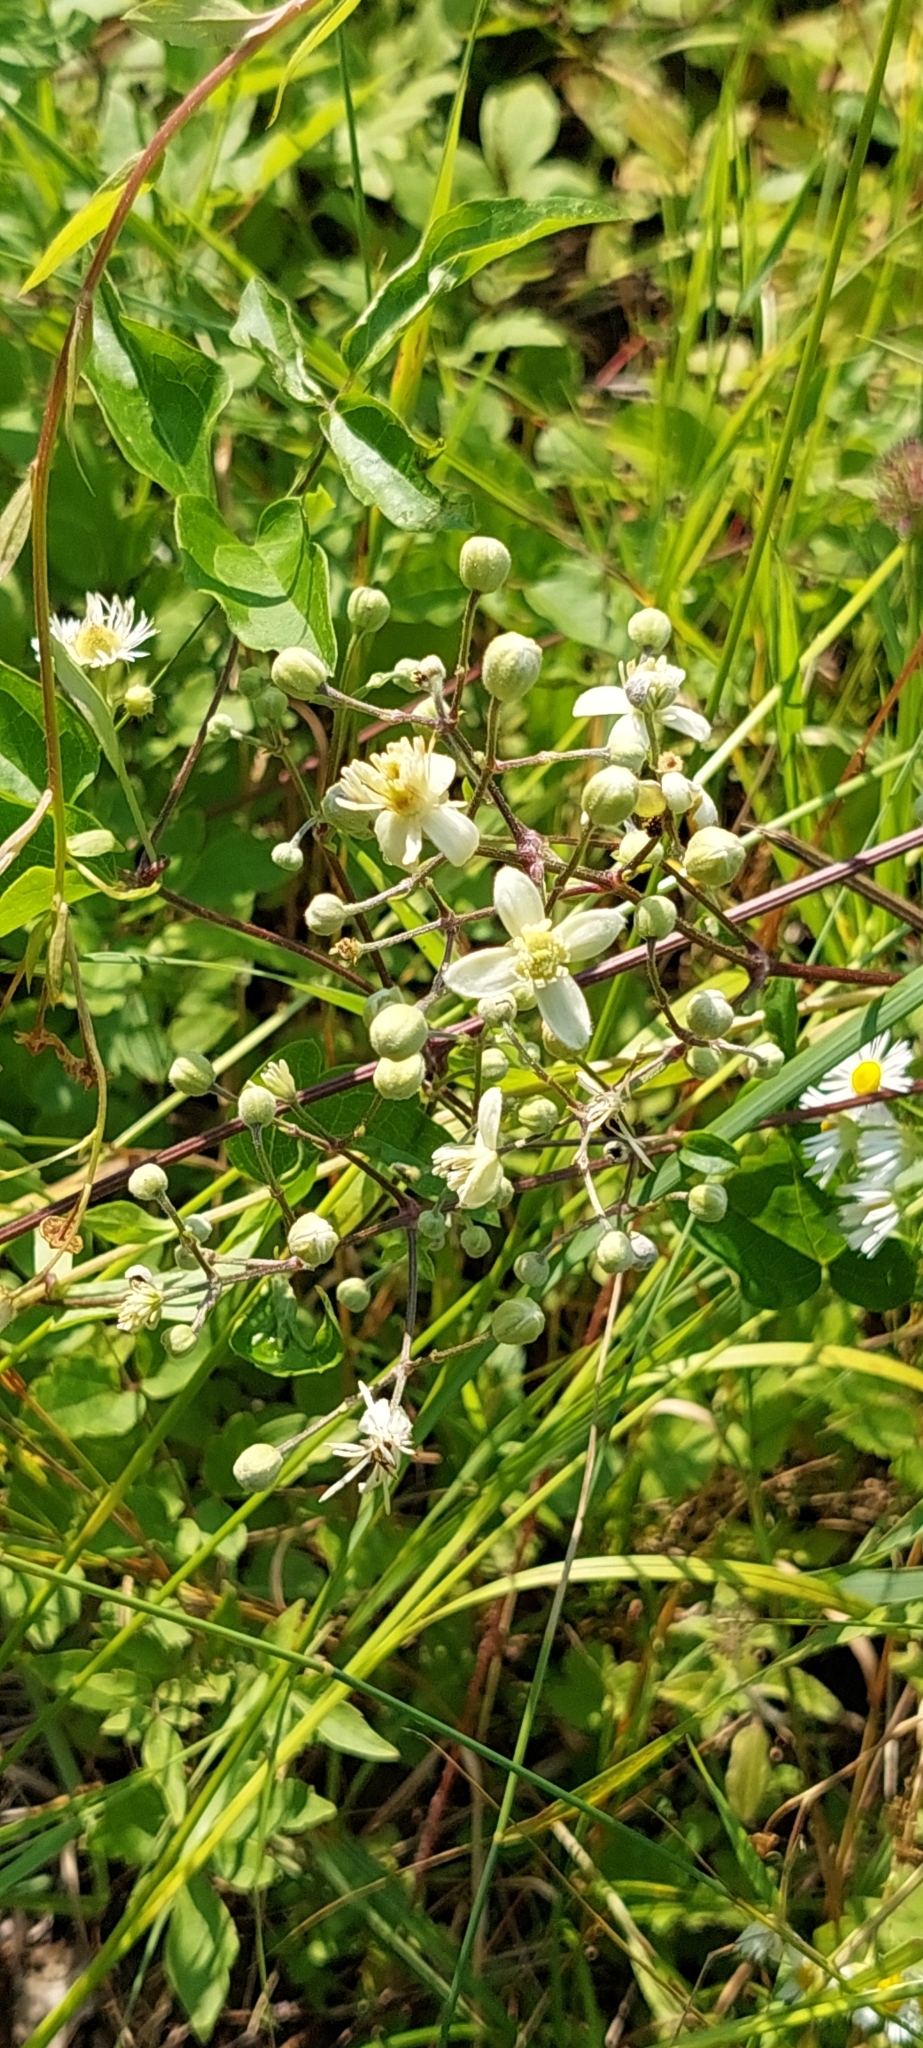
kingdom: Plantae
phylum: Tracheophyta
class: Magnoliopsida
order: Ranunculales
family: Ranunculaceae
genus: Clematis
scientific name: Clematis vitalba
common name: Evergreen clematis
